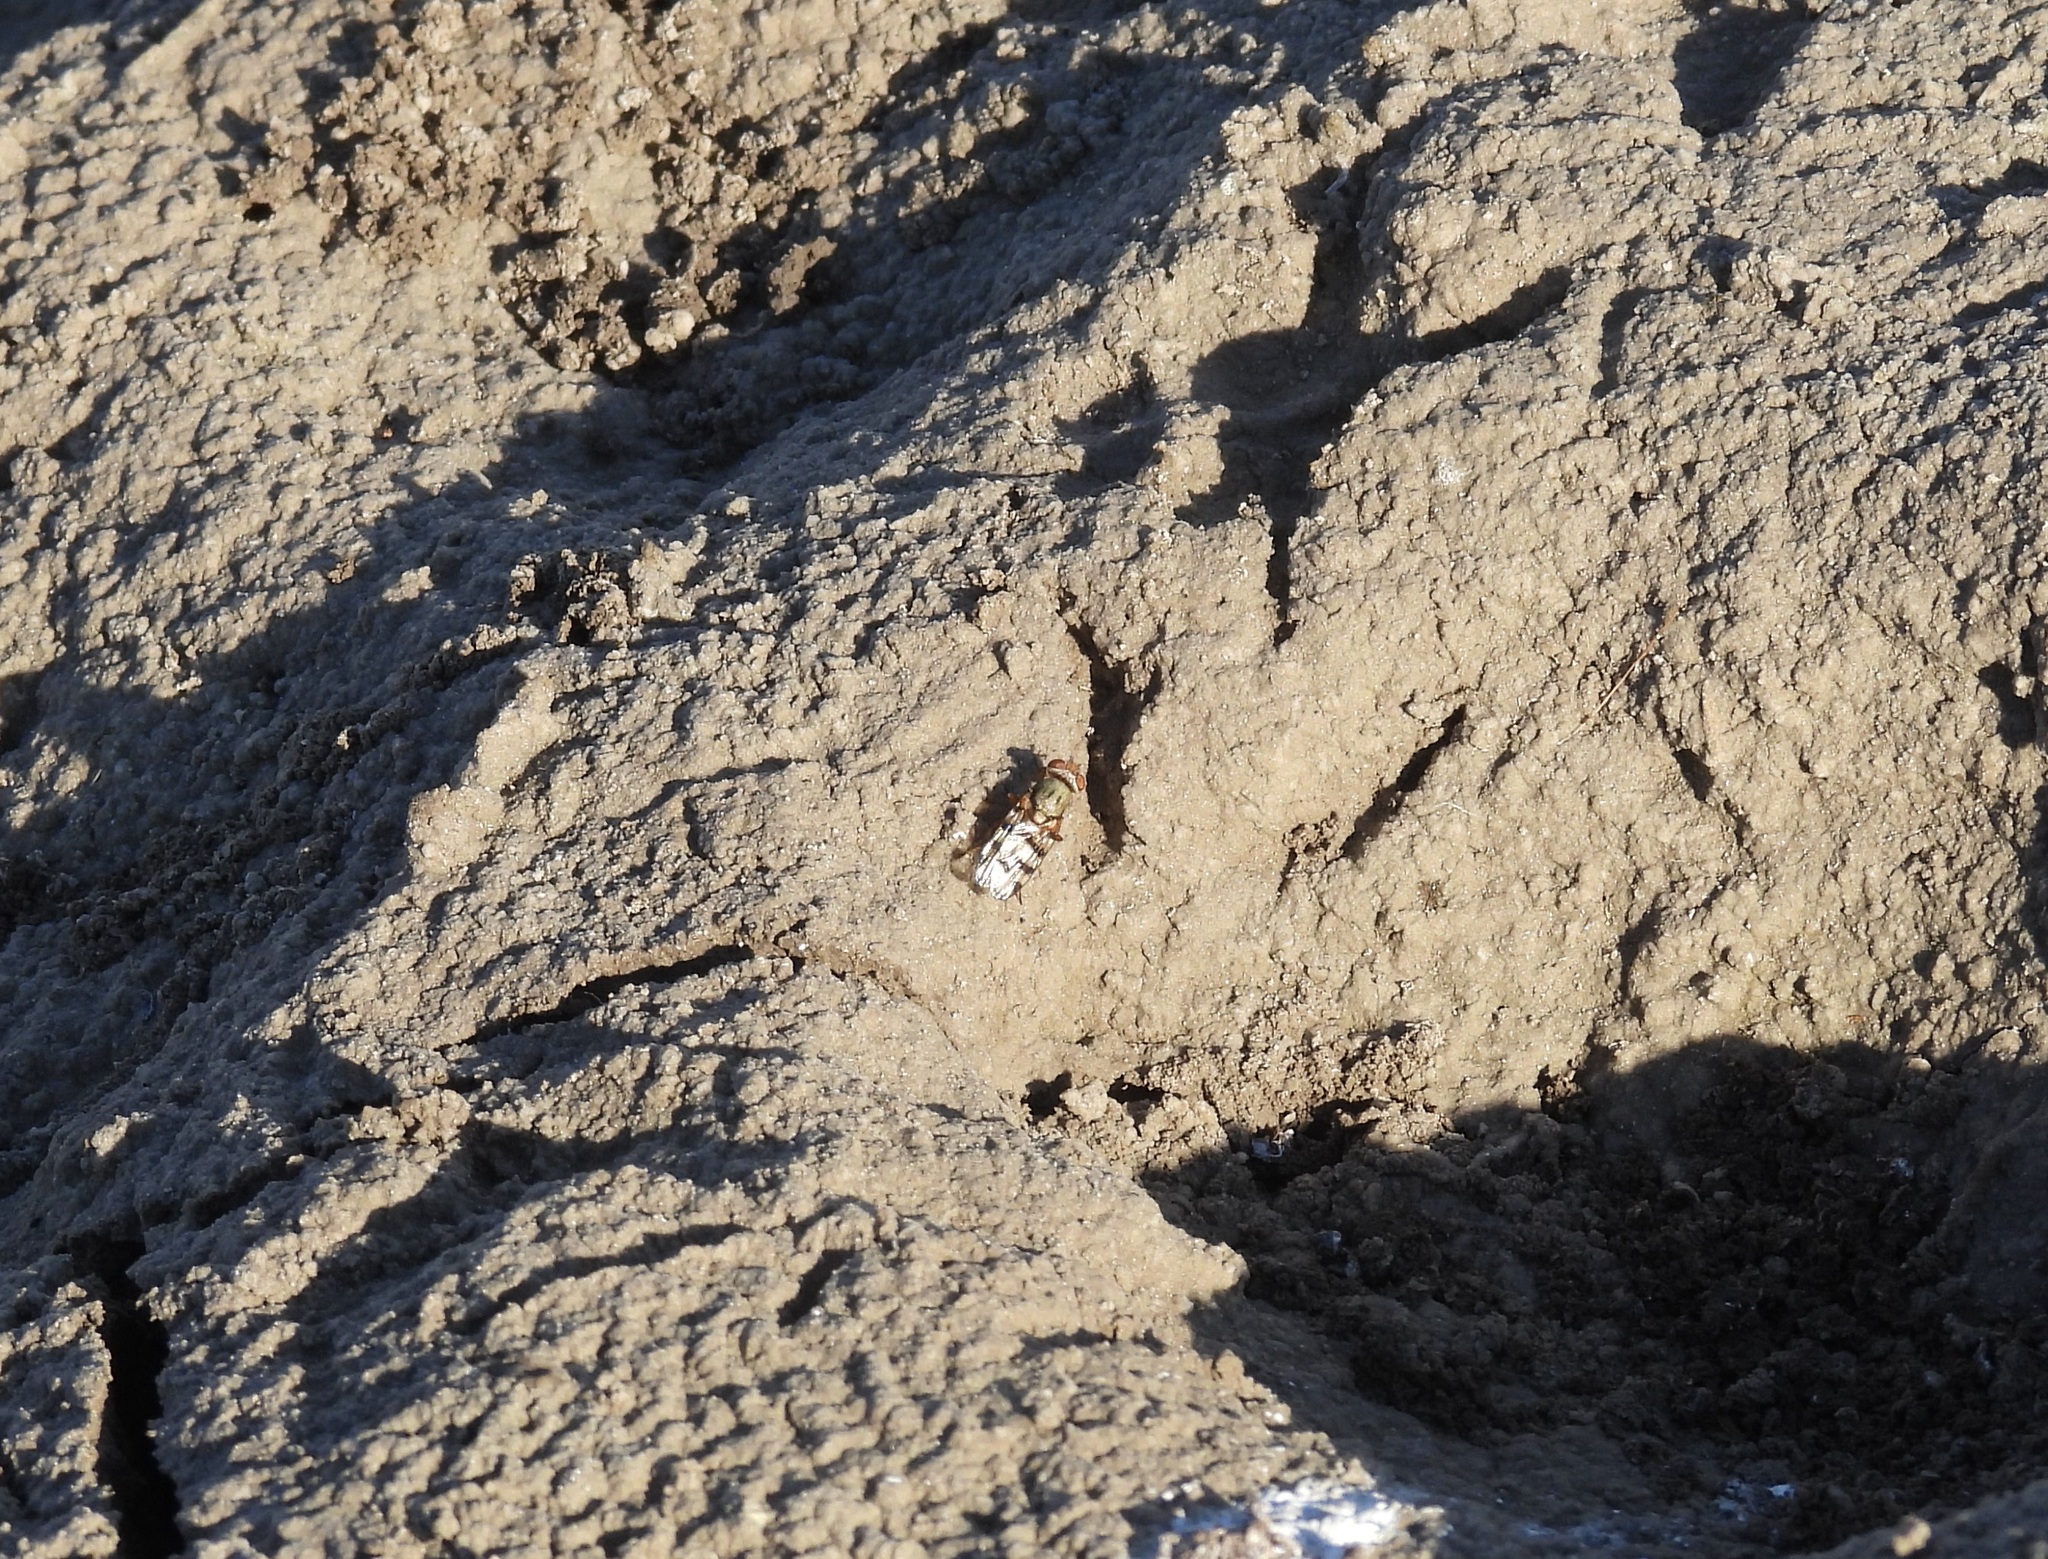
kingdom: Animalia
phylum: Arthropoda
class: Insecta
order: Diptera
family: Ulidiidae
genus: Ceroxys
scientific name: Ceroxys latiusculus
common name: Picture-winged fly
